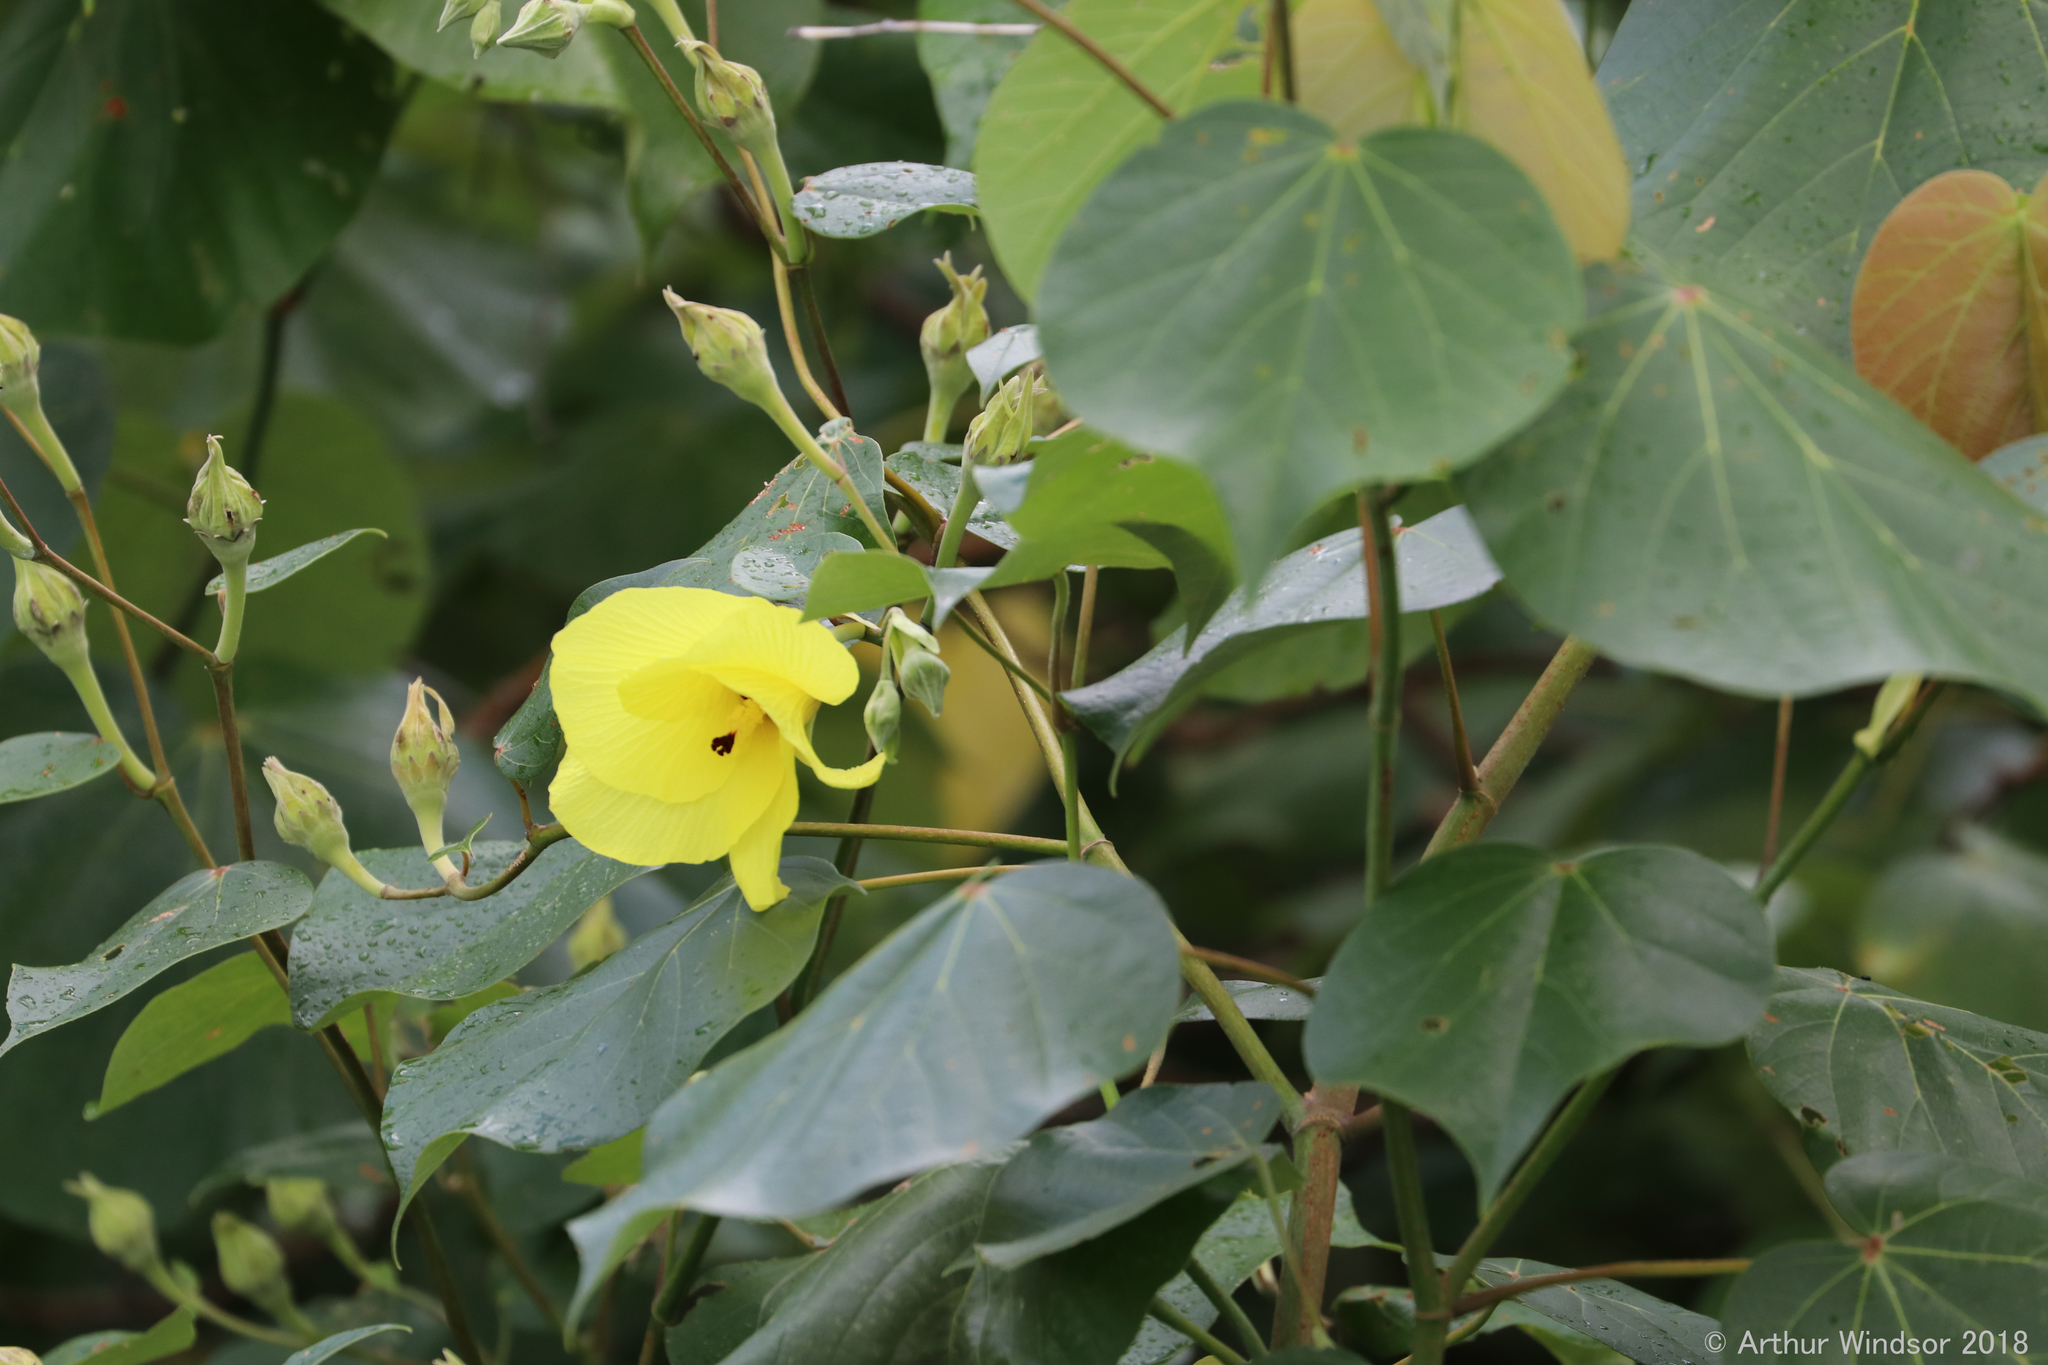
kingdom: Plantae
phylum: Tracheophyta
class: Magnoliopsida
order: Malvales
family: Malvaceae
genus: Talipariti
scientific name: Talipariti tiliaceum
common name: Sea hibiscus
